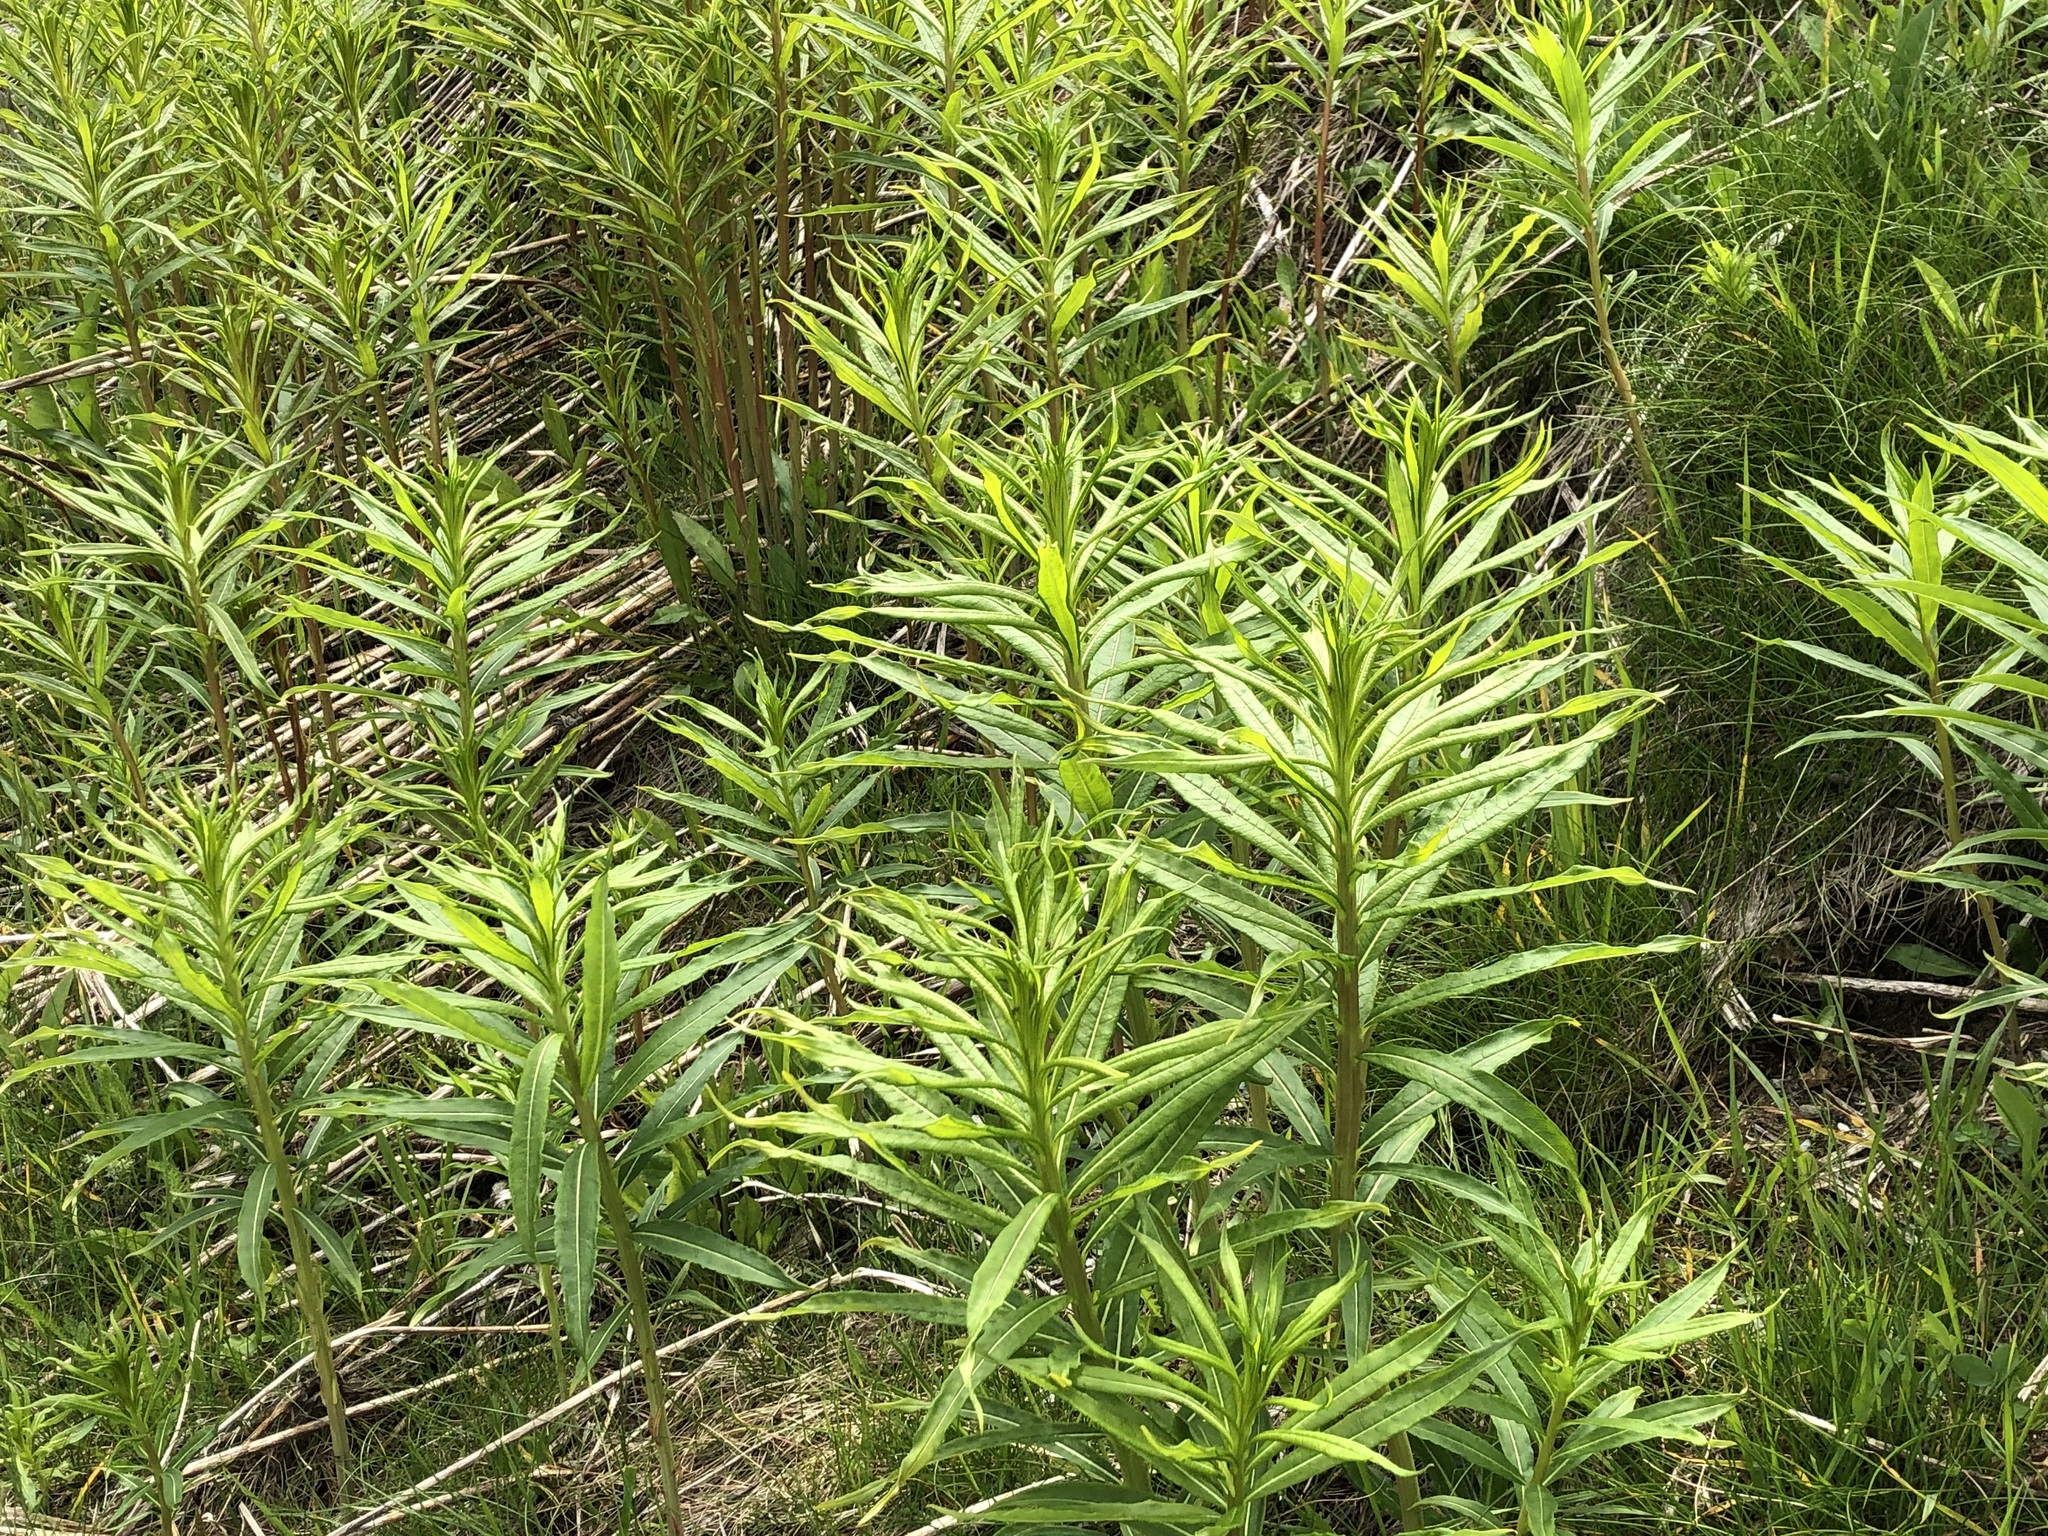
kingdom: Plantae
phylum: Tracheophyta
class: Magnoliopsida
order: Myrtales
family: Onagraceae
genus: Chamaenerion
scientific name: Chamaenerion angustifolium
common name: Fireweed
